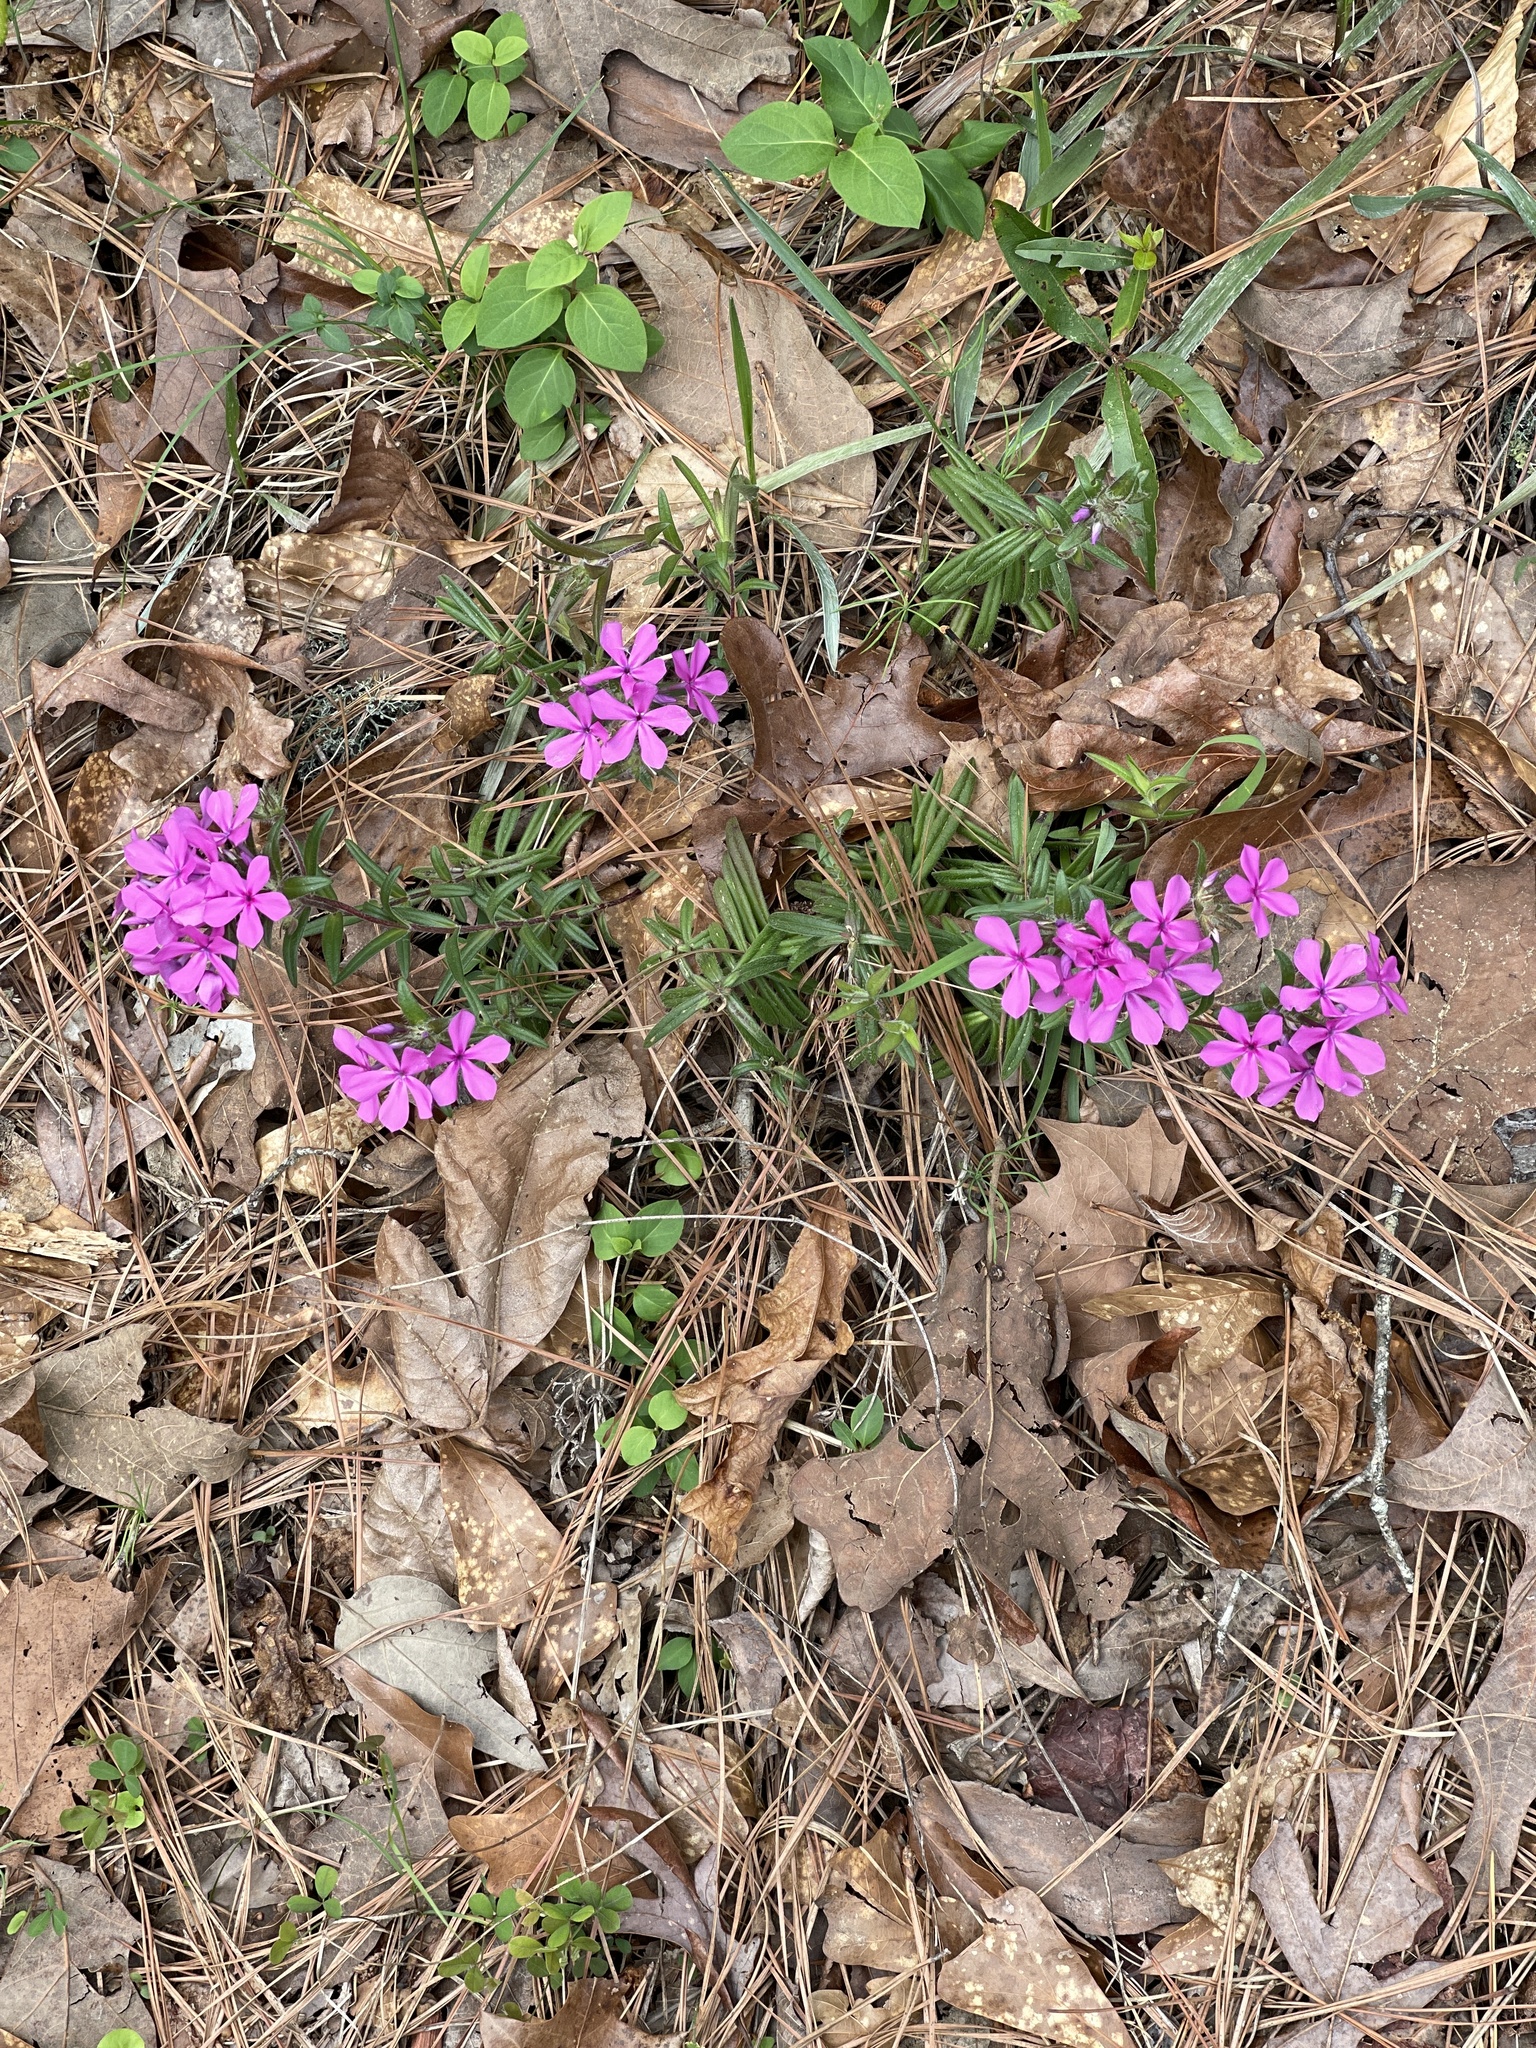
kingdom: Plantae
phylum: Tracheophyta
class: Magnoliopsida
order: Ericales
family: Polemoniaceae
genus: Phlox
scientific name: Phlox amoena
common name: Hairy phlox
